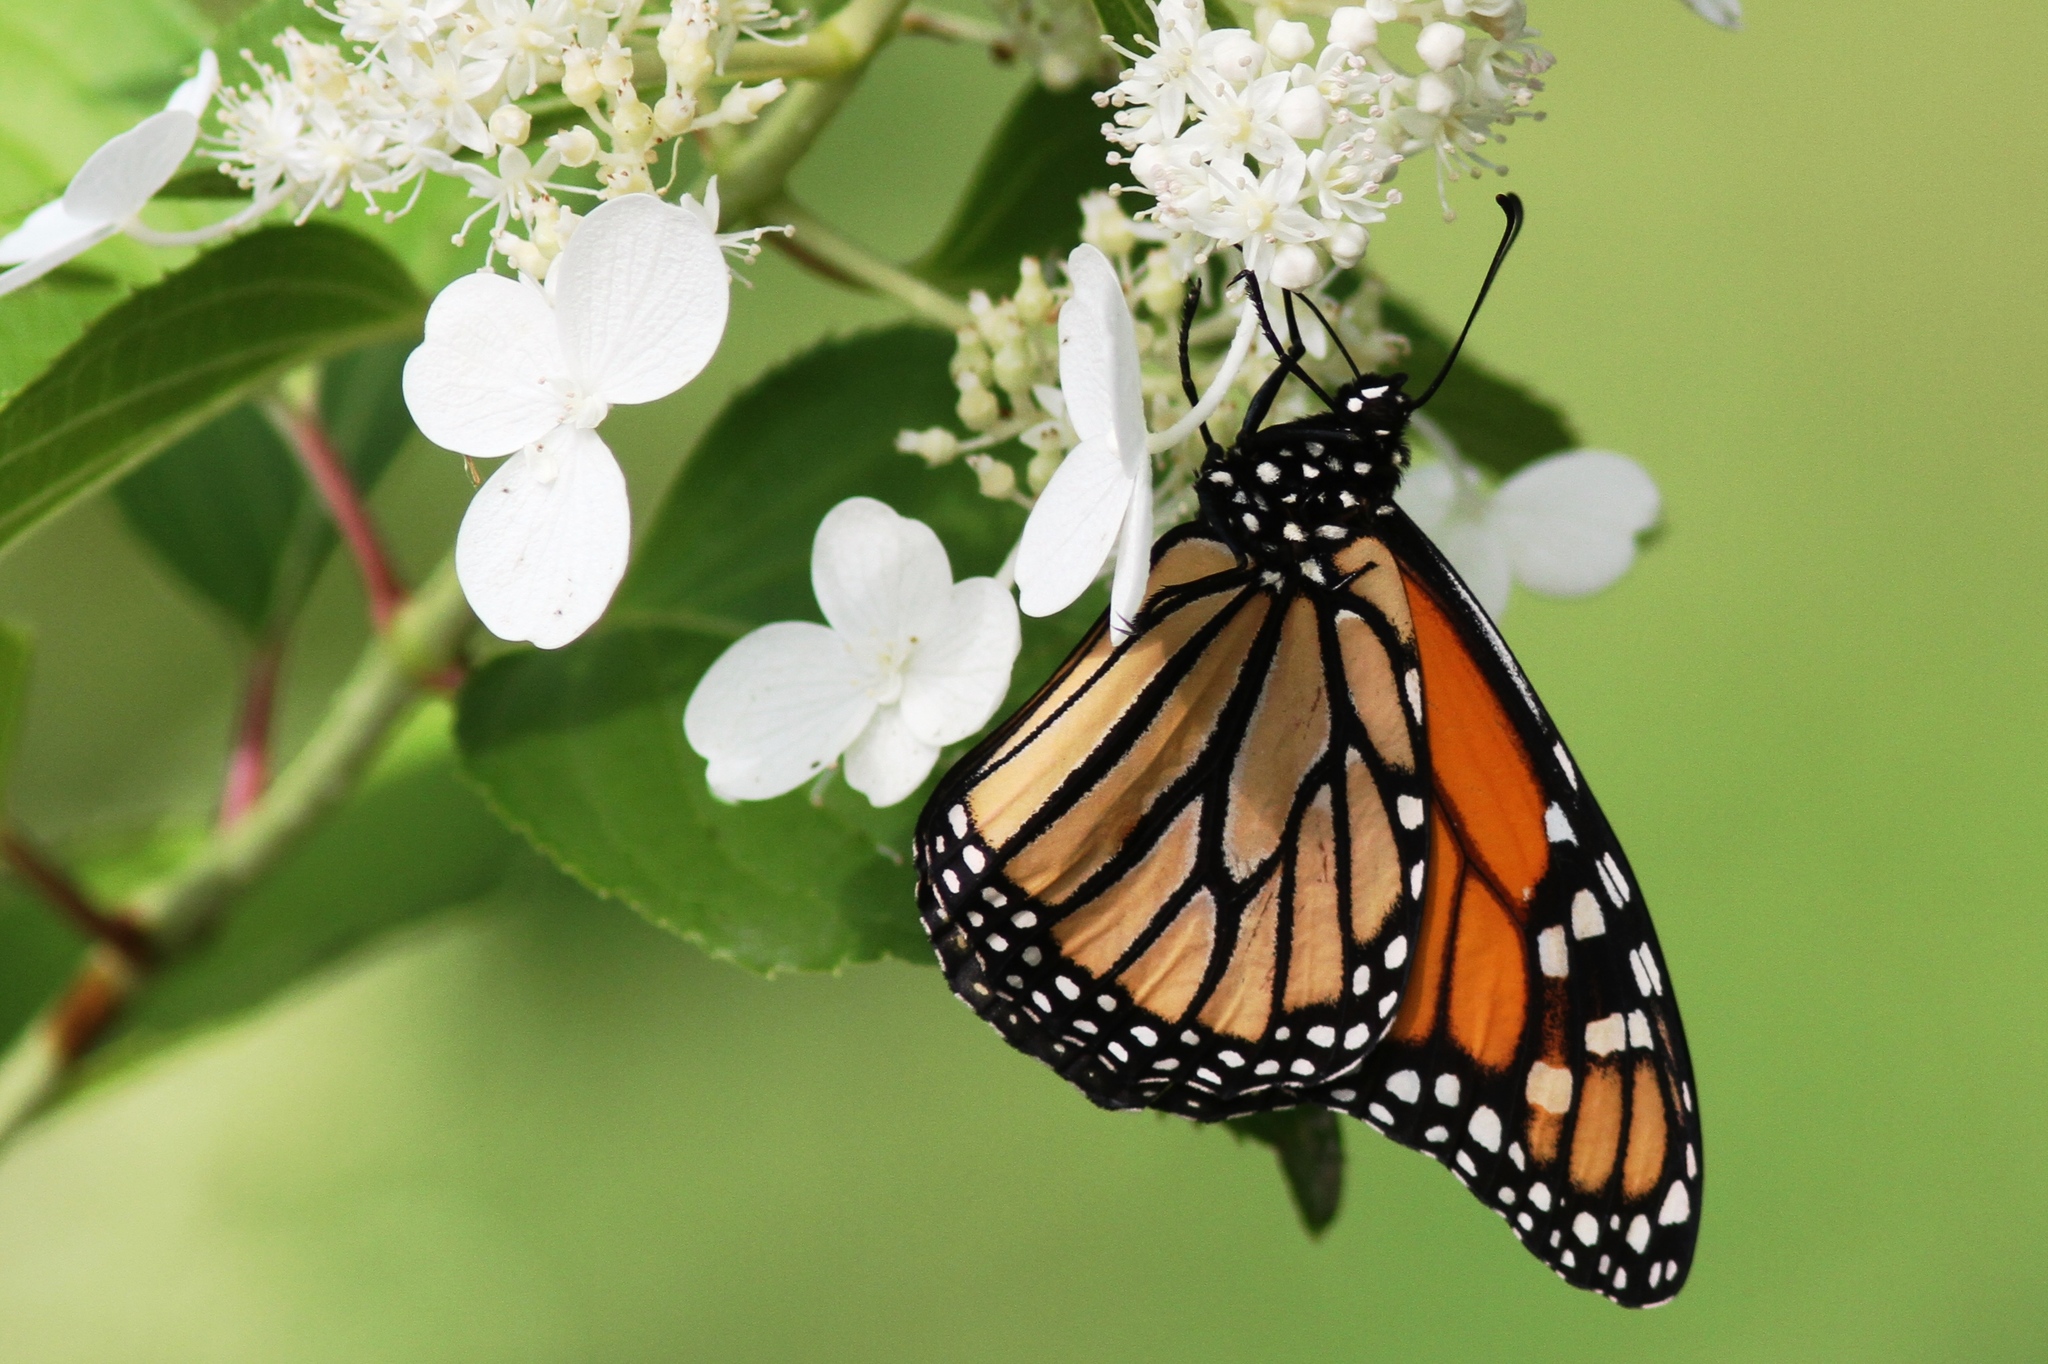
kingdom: Animalia
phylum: Arthropoda
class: Insecta
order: Lepidoptera
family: Nymphalidae
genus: Danaus
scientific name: Danaus plexippus
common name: Monarch
